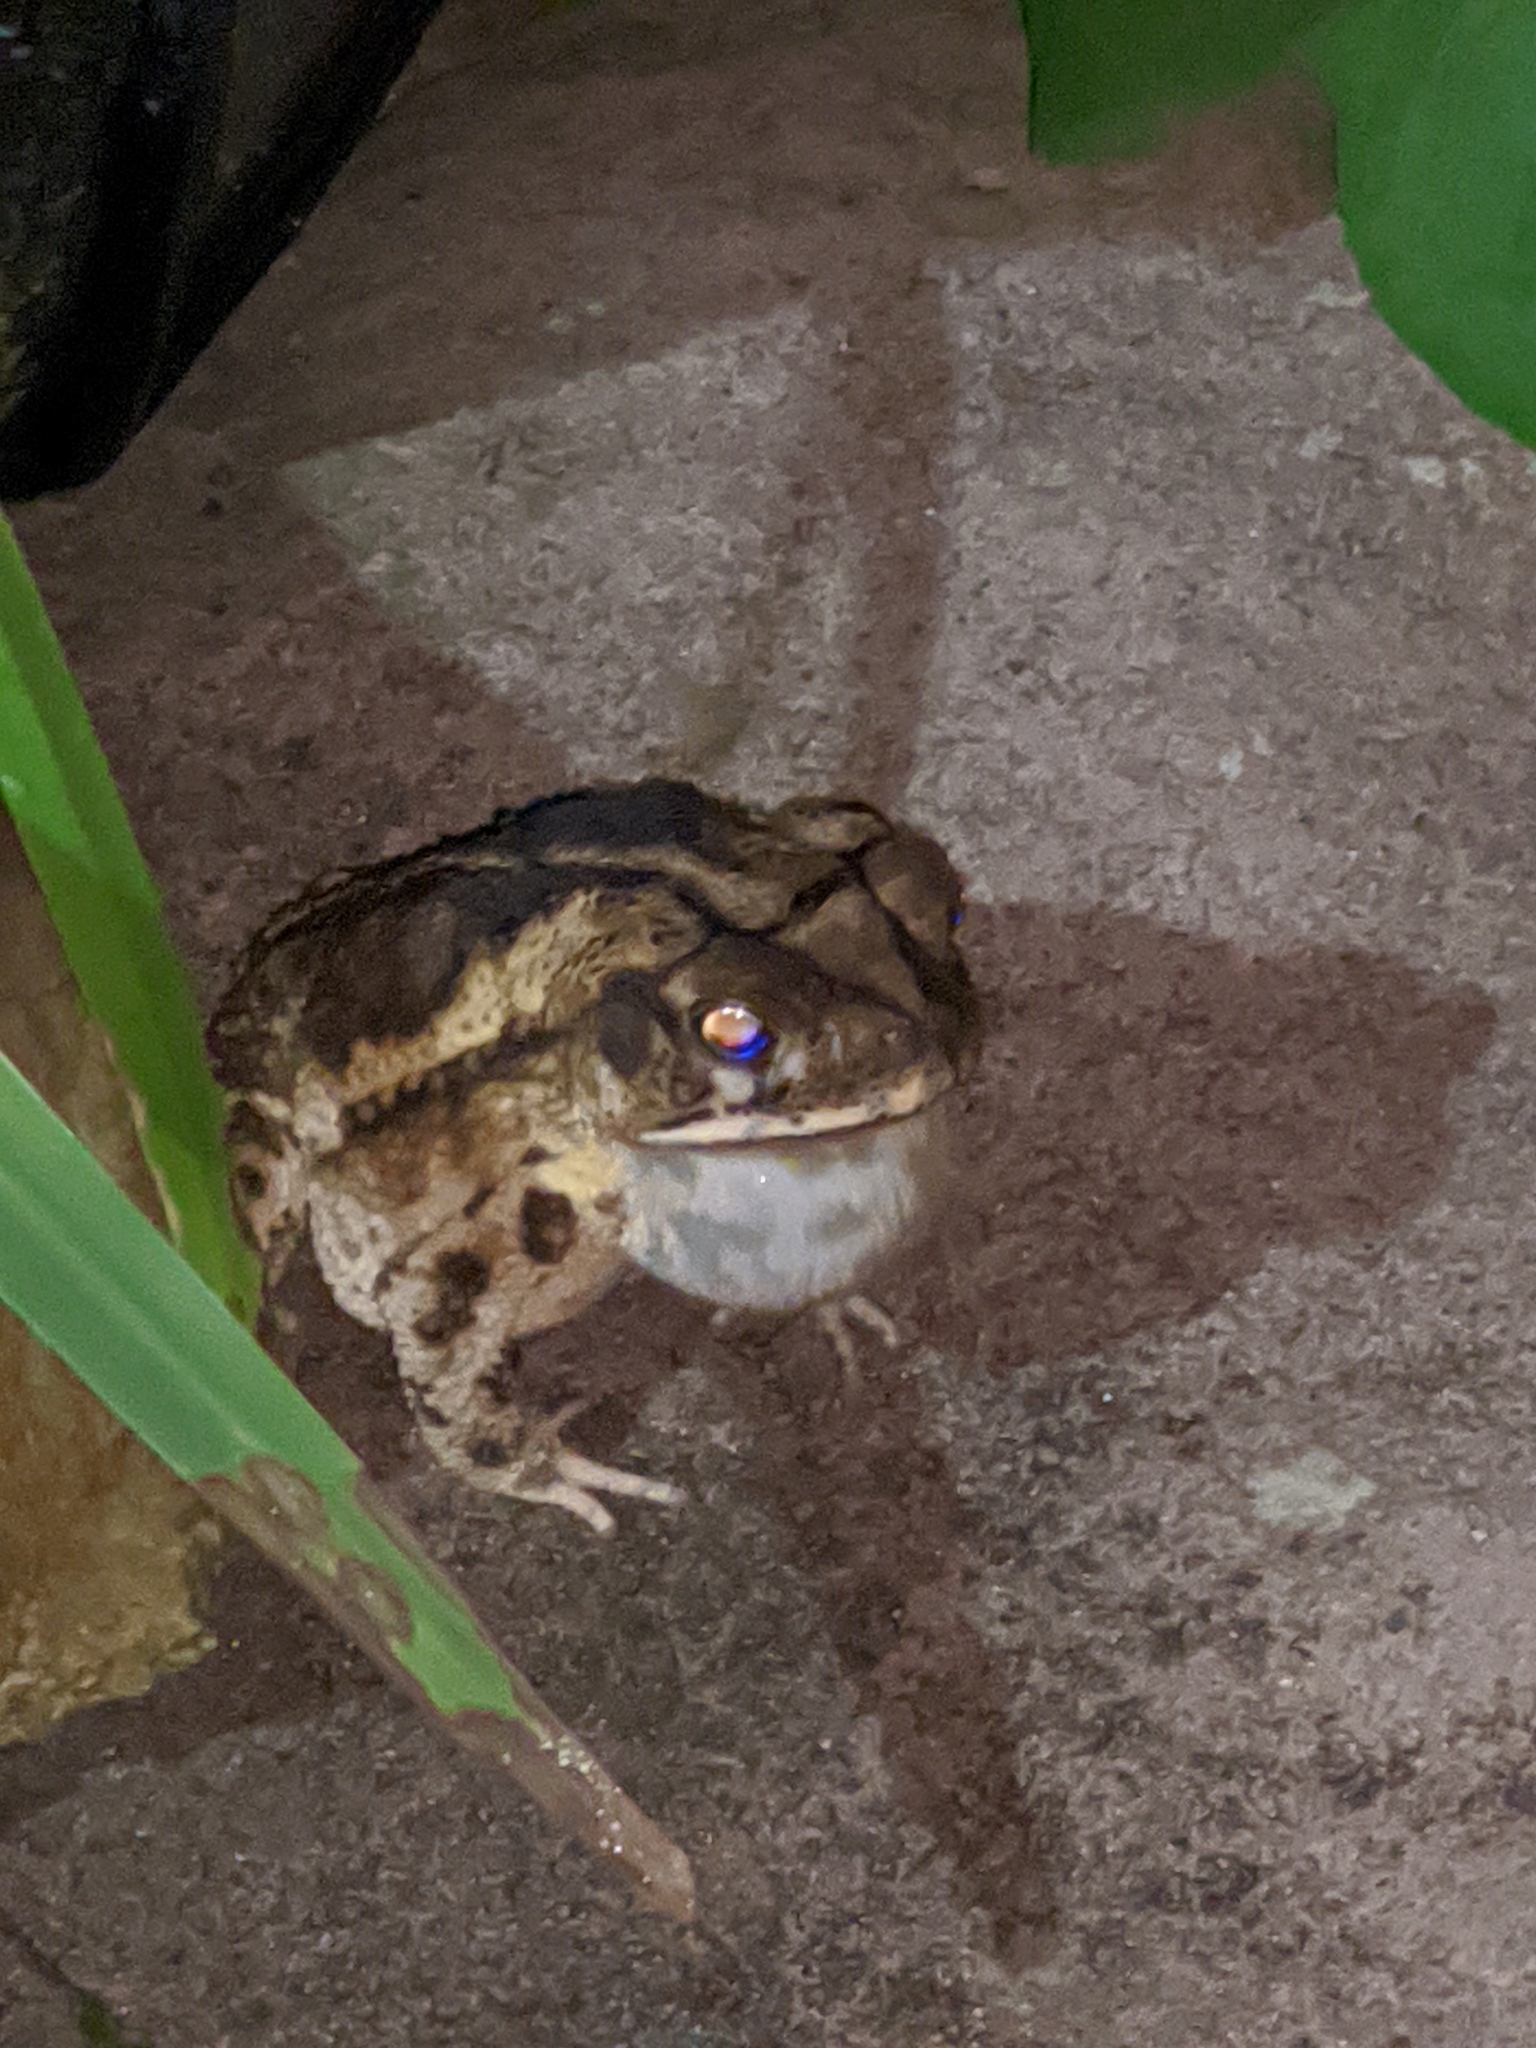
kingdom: Animalia
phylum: Chordata
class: Amphibia
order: Anura
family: Bufonidae
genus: Incilius
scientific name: Incilius nebulifer
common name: Gulf coast toad
